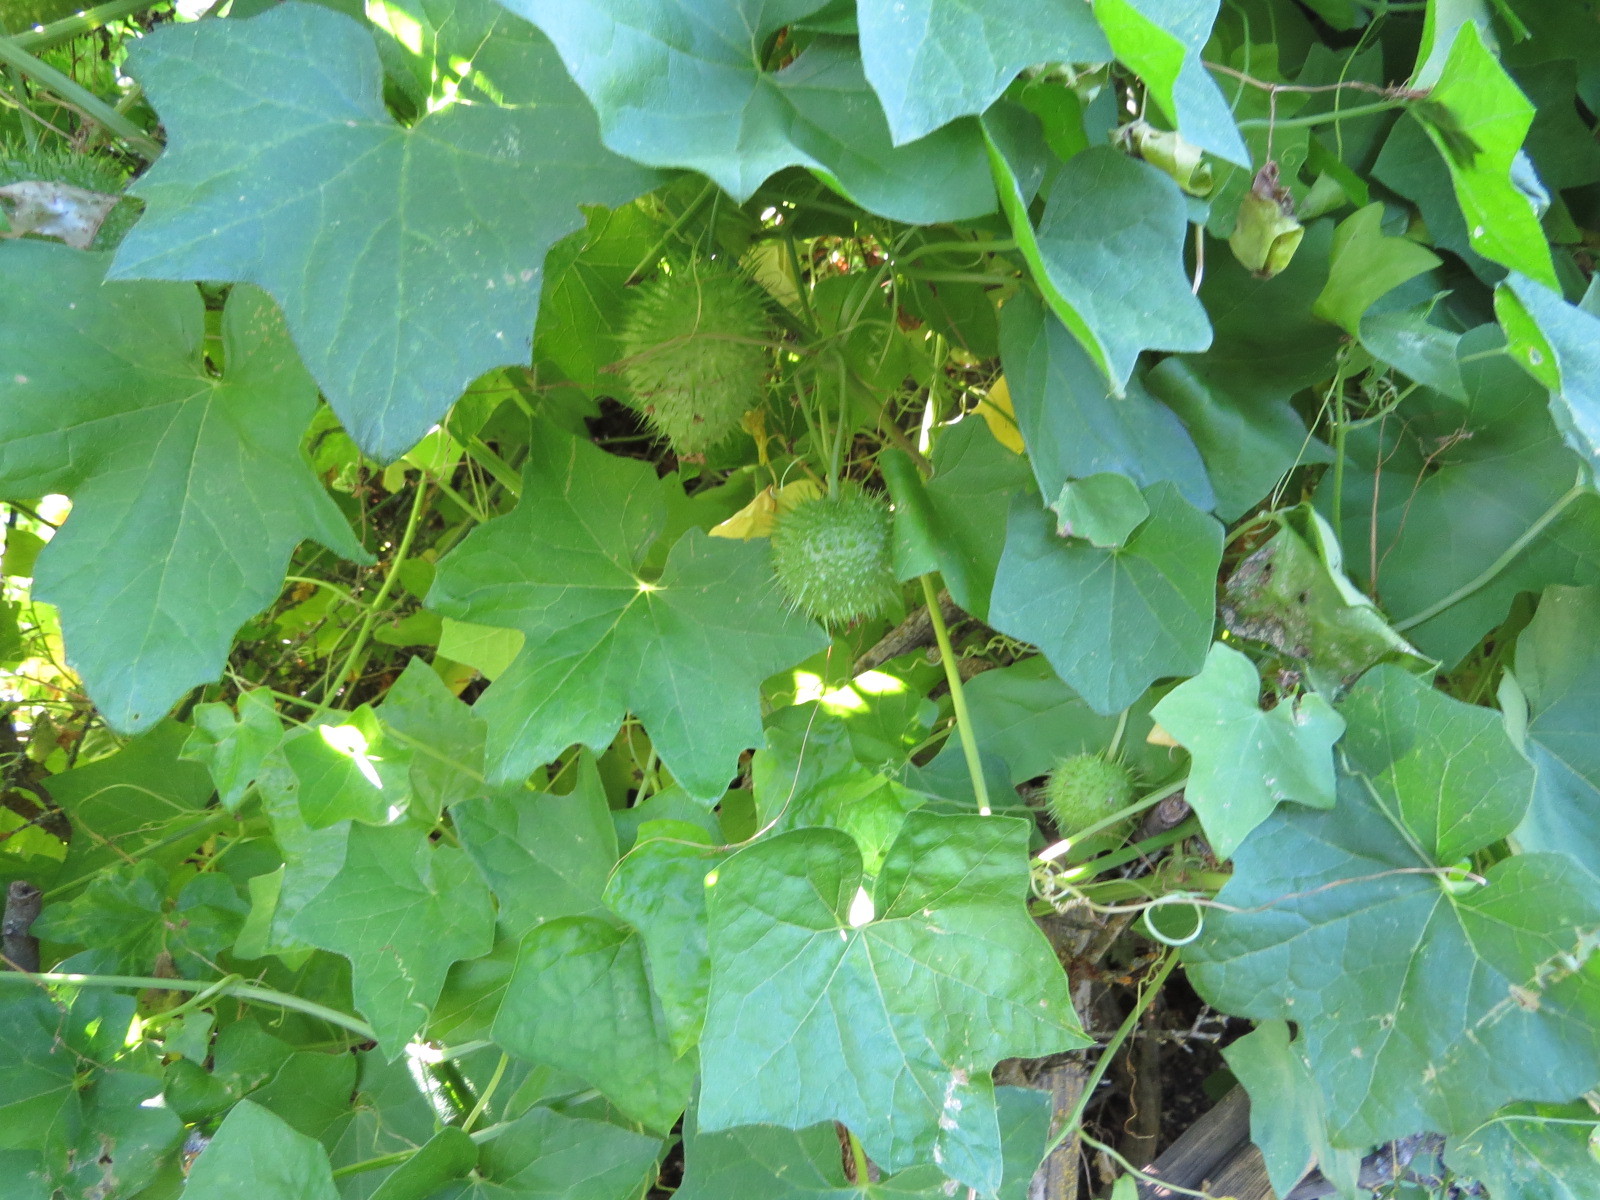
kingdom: Plantae
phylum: Tracheophyta
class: Magnoliopsida
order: Cucurbitales
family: Cucurbitaceae
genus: Marah
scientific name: Marah fabacea
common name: California manroot
